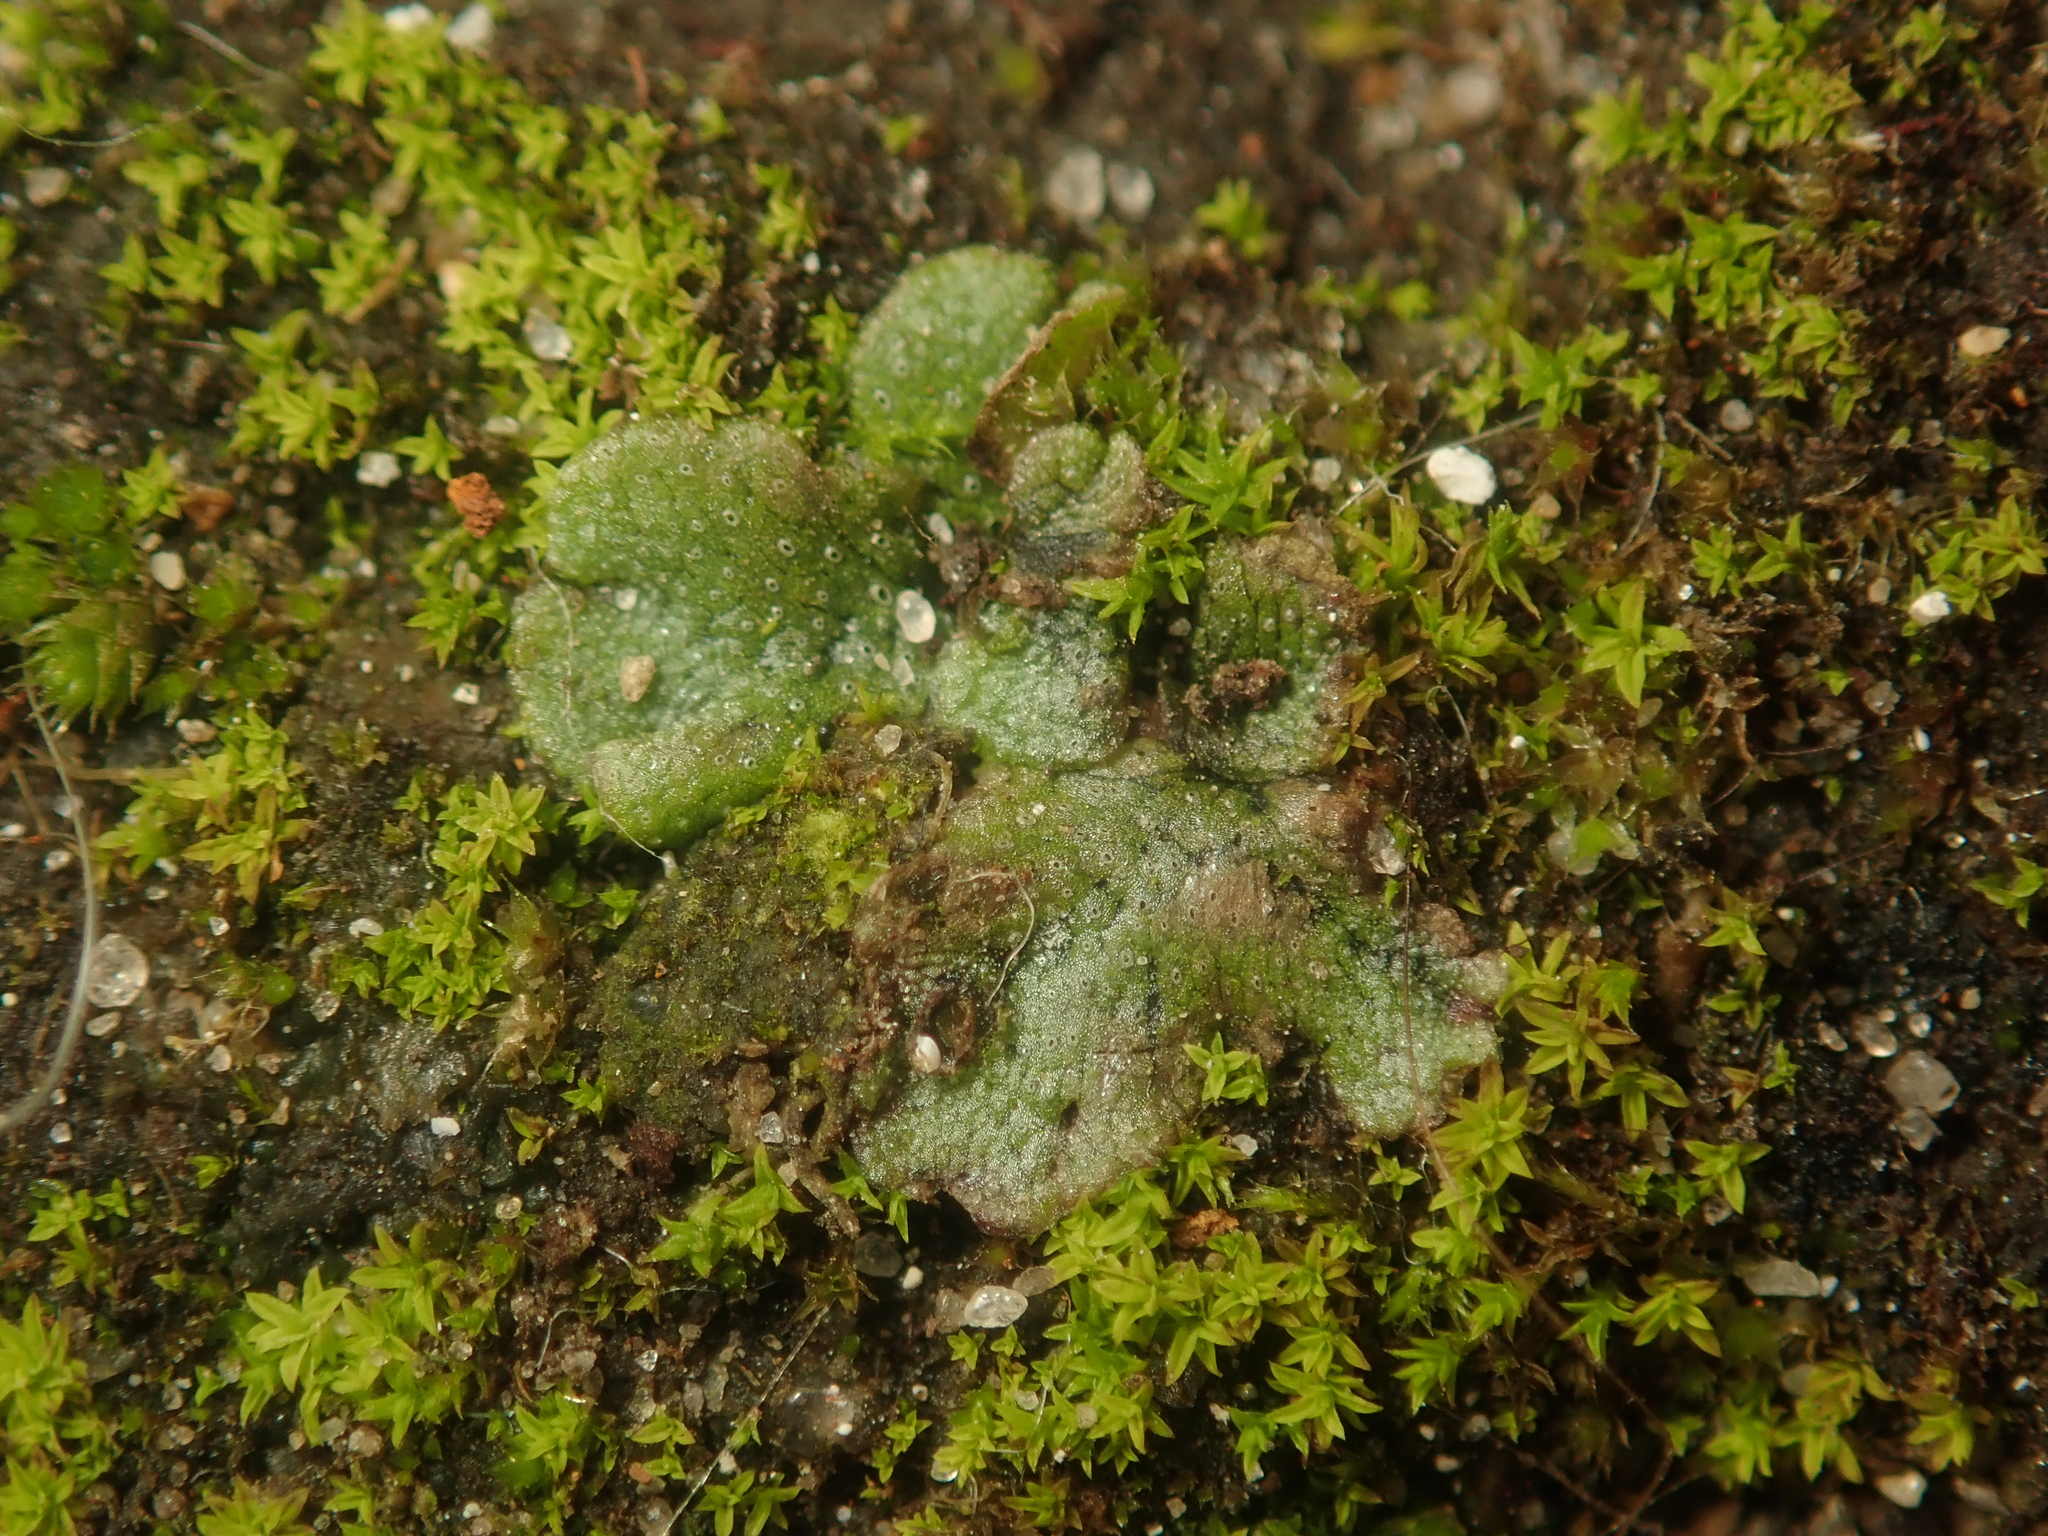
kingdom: Plantae
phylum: Marchantiophyta
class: Marchantiopsida
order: Marchantiales
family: Marchantiaceae
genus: Marchantia
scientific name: Marchantia polymorpha
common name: Common liverwort
